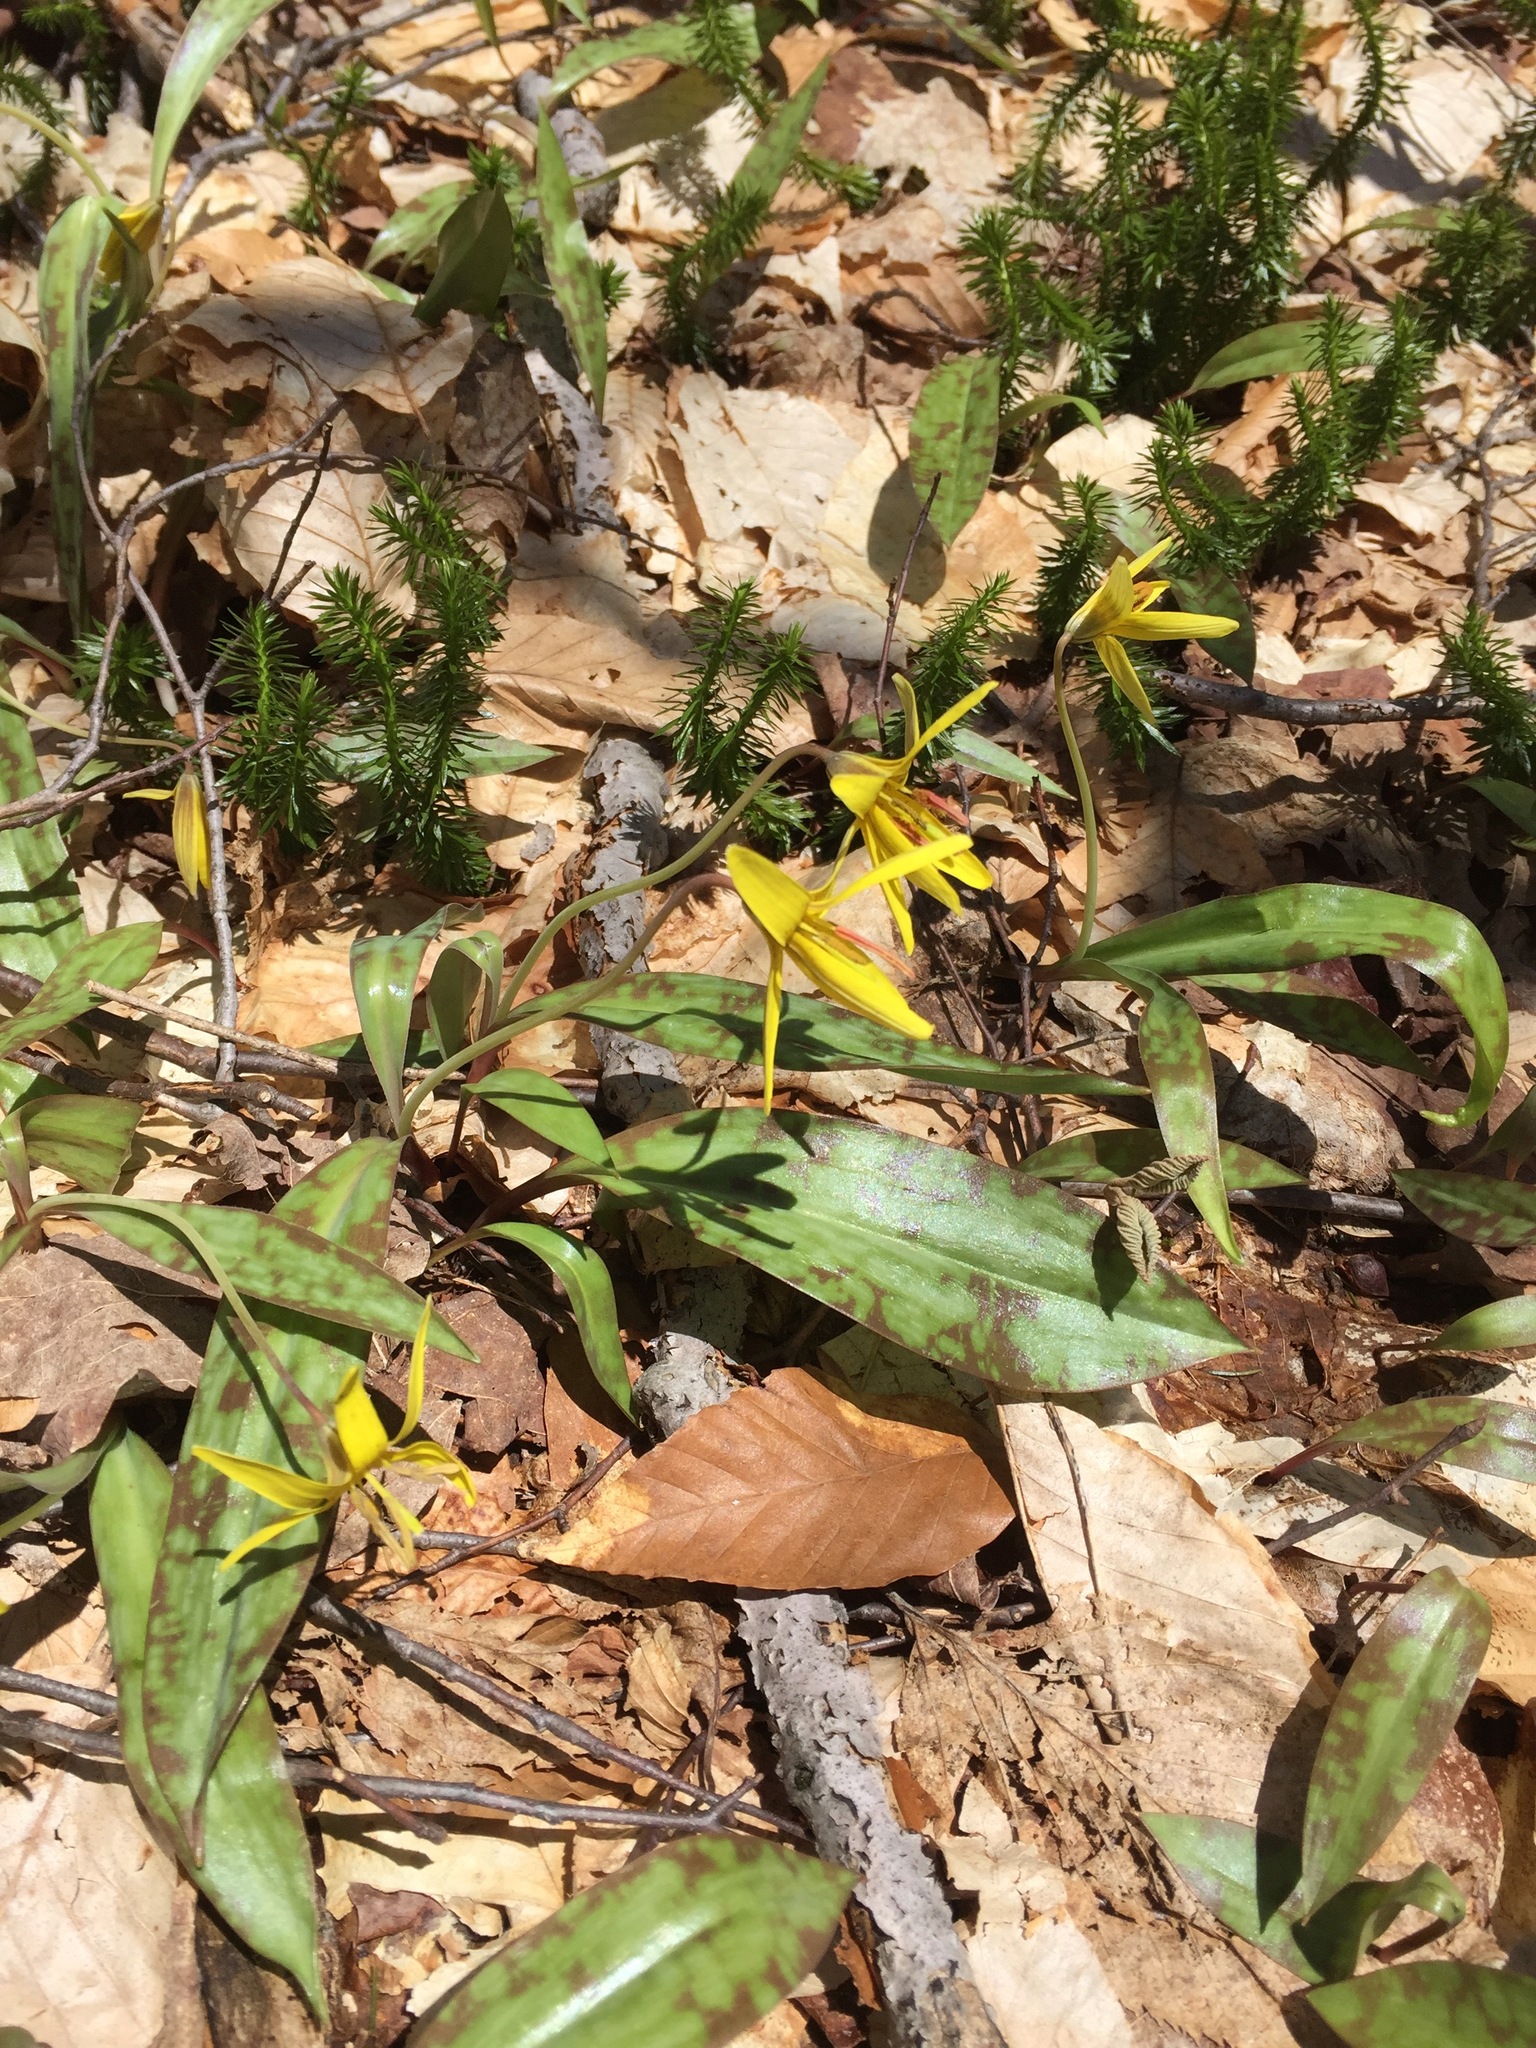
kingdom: Plantae
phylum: Tracheophyta
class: Liliopsida
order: Liliales
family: Liliaceae
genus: Erythronium
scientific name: Erythronium americanum
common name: Yellow adder's-tongue
